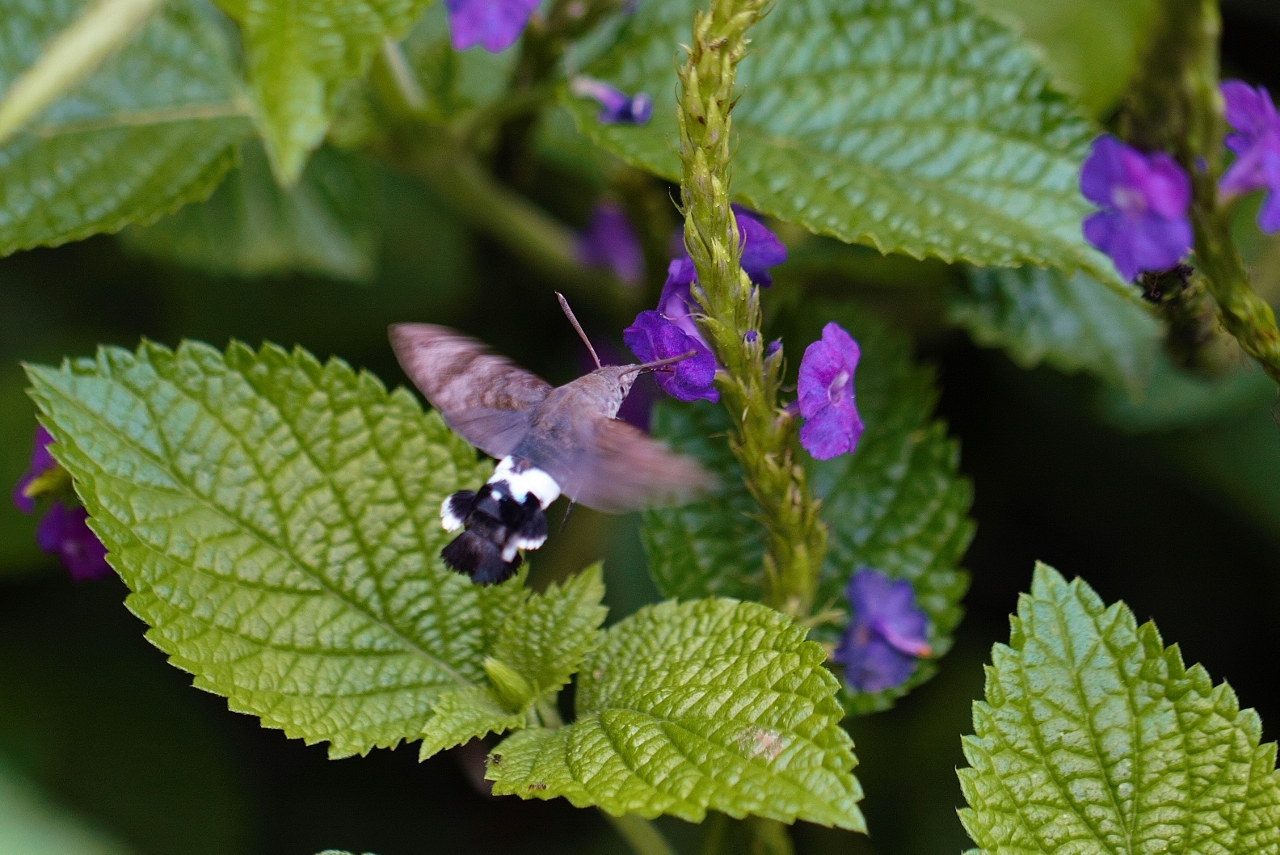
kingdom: Animalia
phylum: Arthropoda
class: Insecta
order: Lepidoptera
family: Sphingidae
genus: Leucostrophus
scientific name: Leucostrophus alterhirundo
